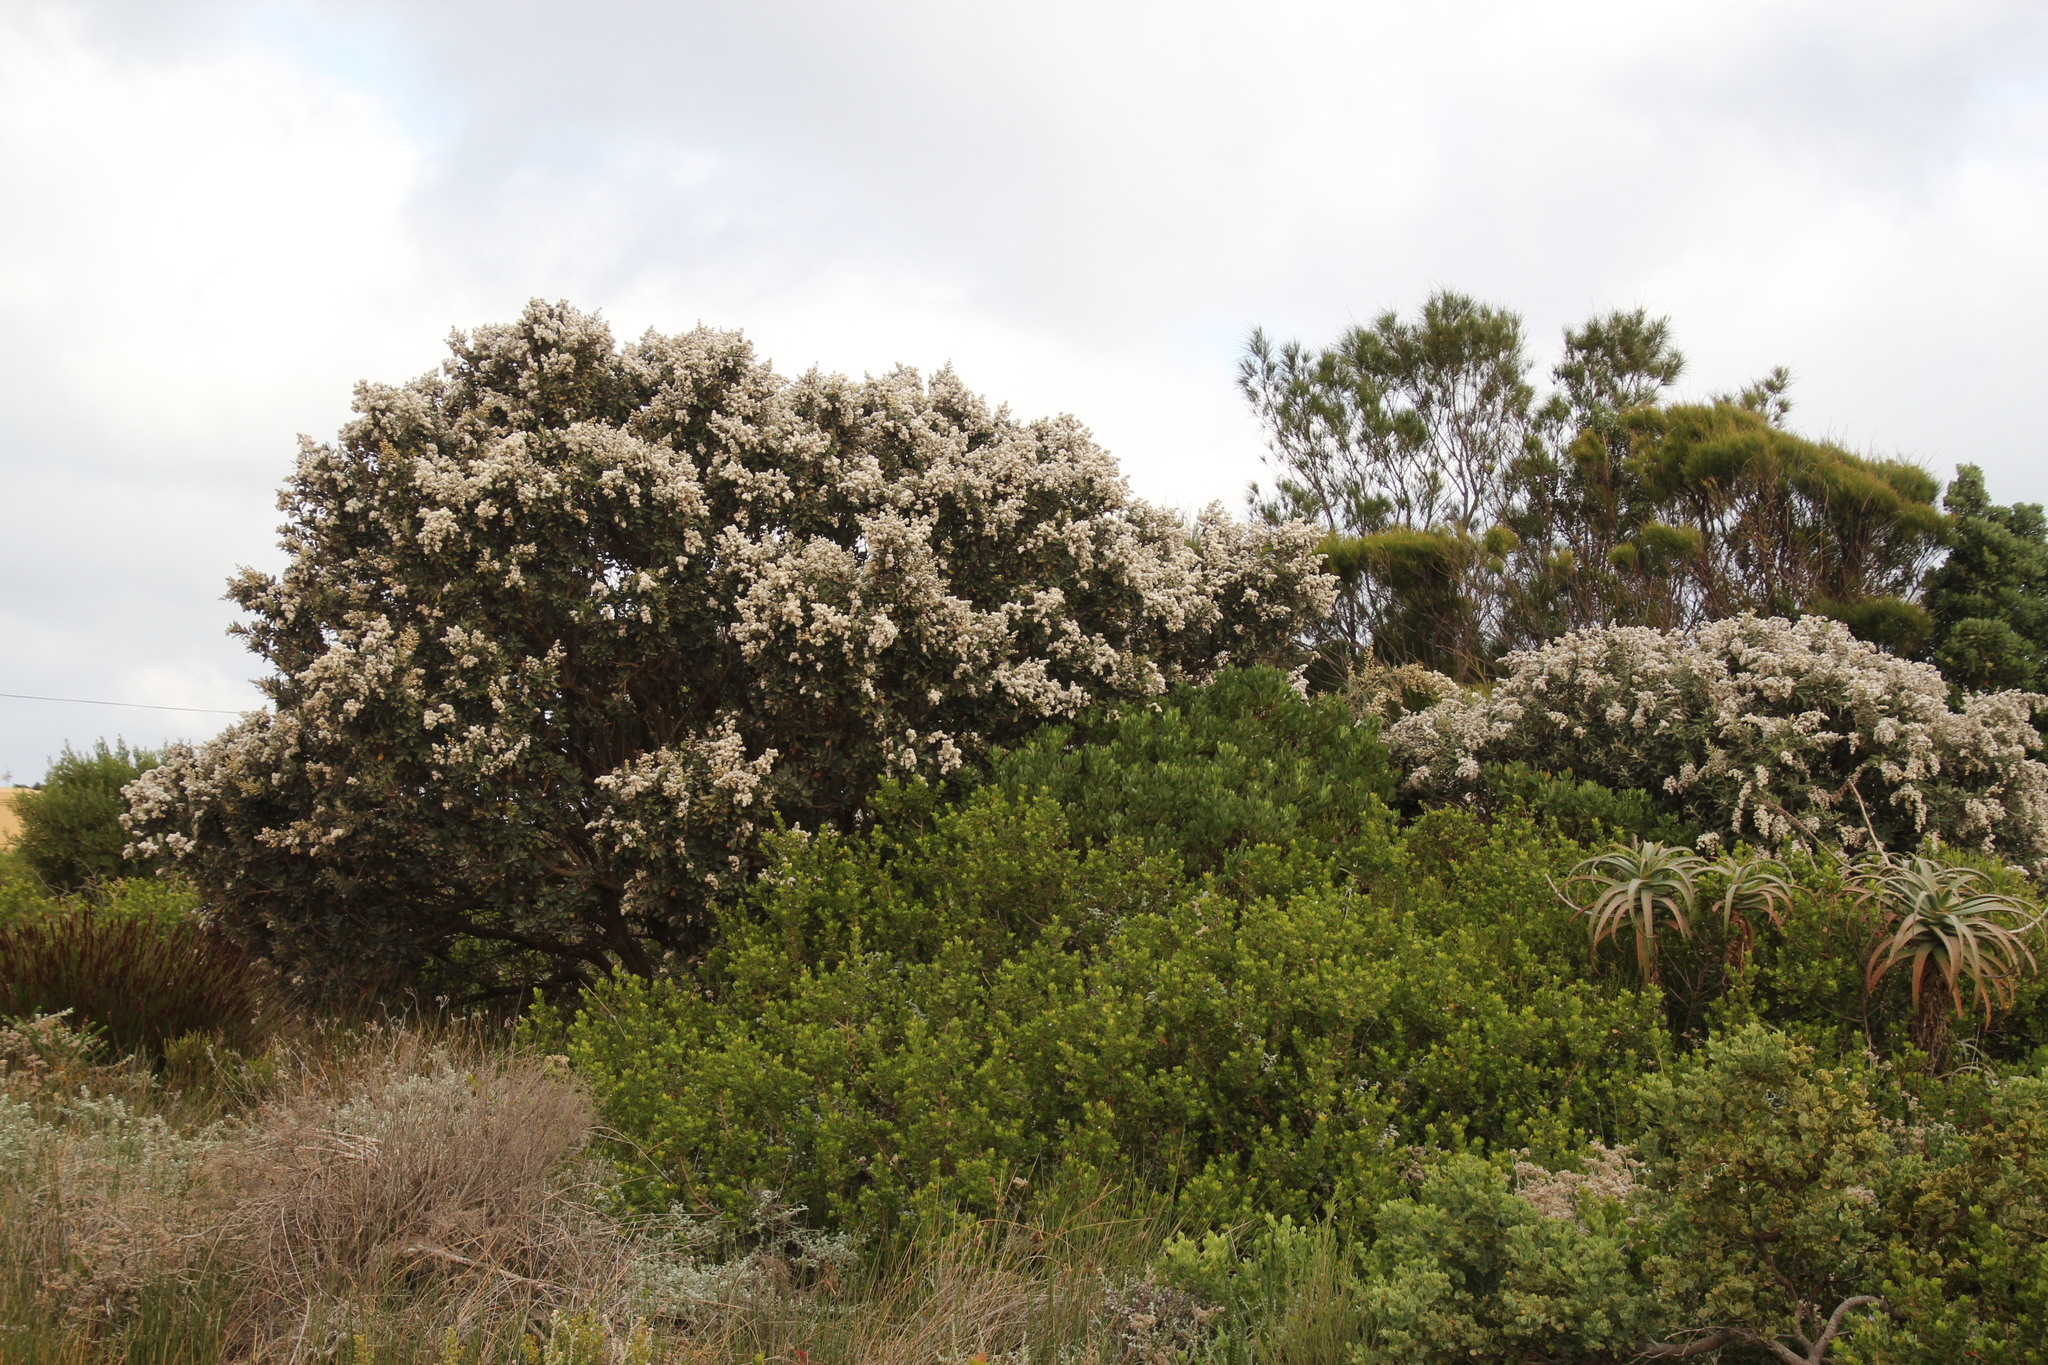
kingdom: Plantae
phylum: Tracheophyta
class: Magnoliopsida
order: Asterales
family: Asteraceae
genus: Tarchonanthus
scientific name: Tarchonanthus littoralis
